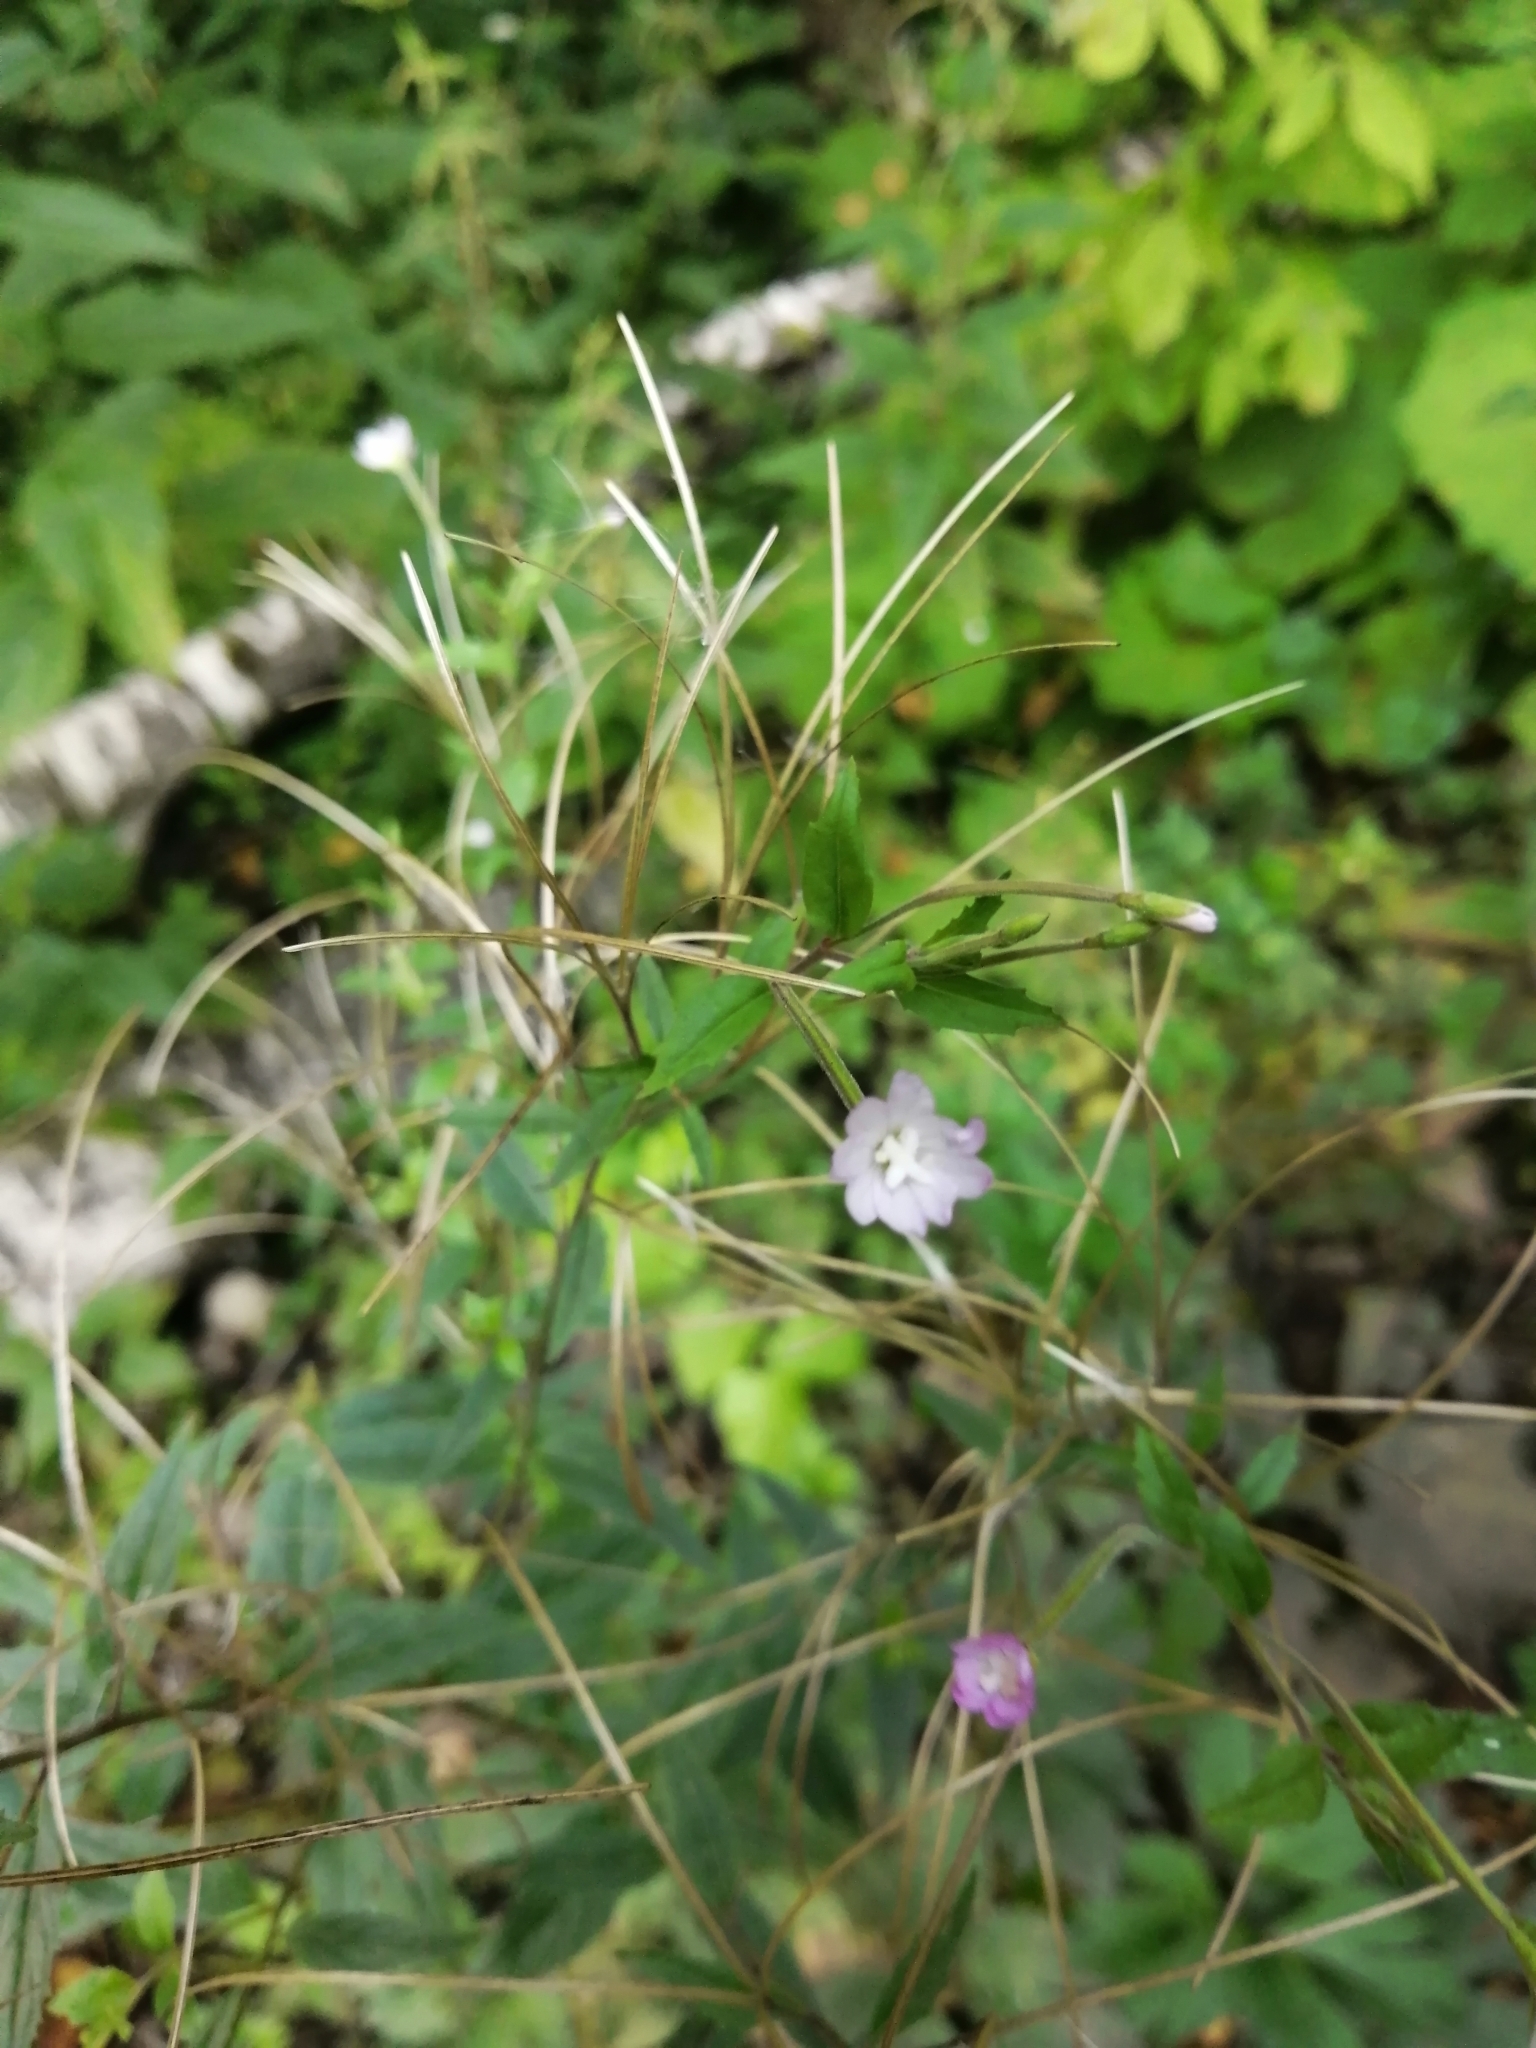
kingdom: Plantae
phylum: Tracheophyta
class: Magnoliopsida
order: Myrtales
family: Onagraceae
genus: Epilobium
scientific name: Epilobium montanum
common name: Broad-leaved willowherb
